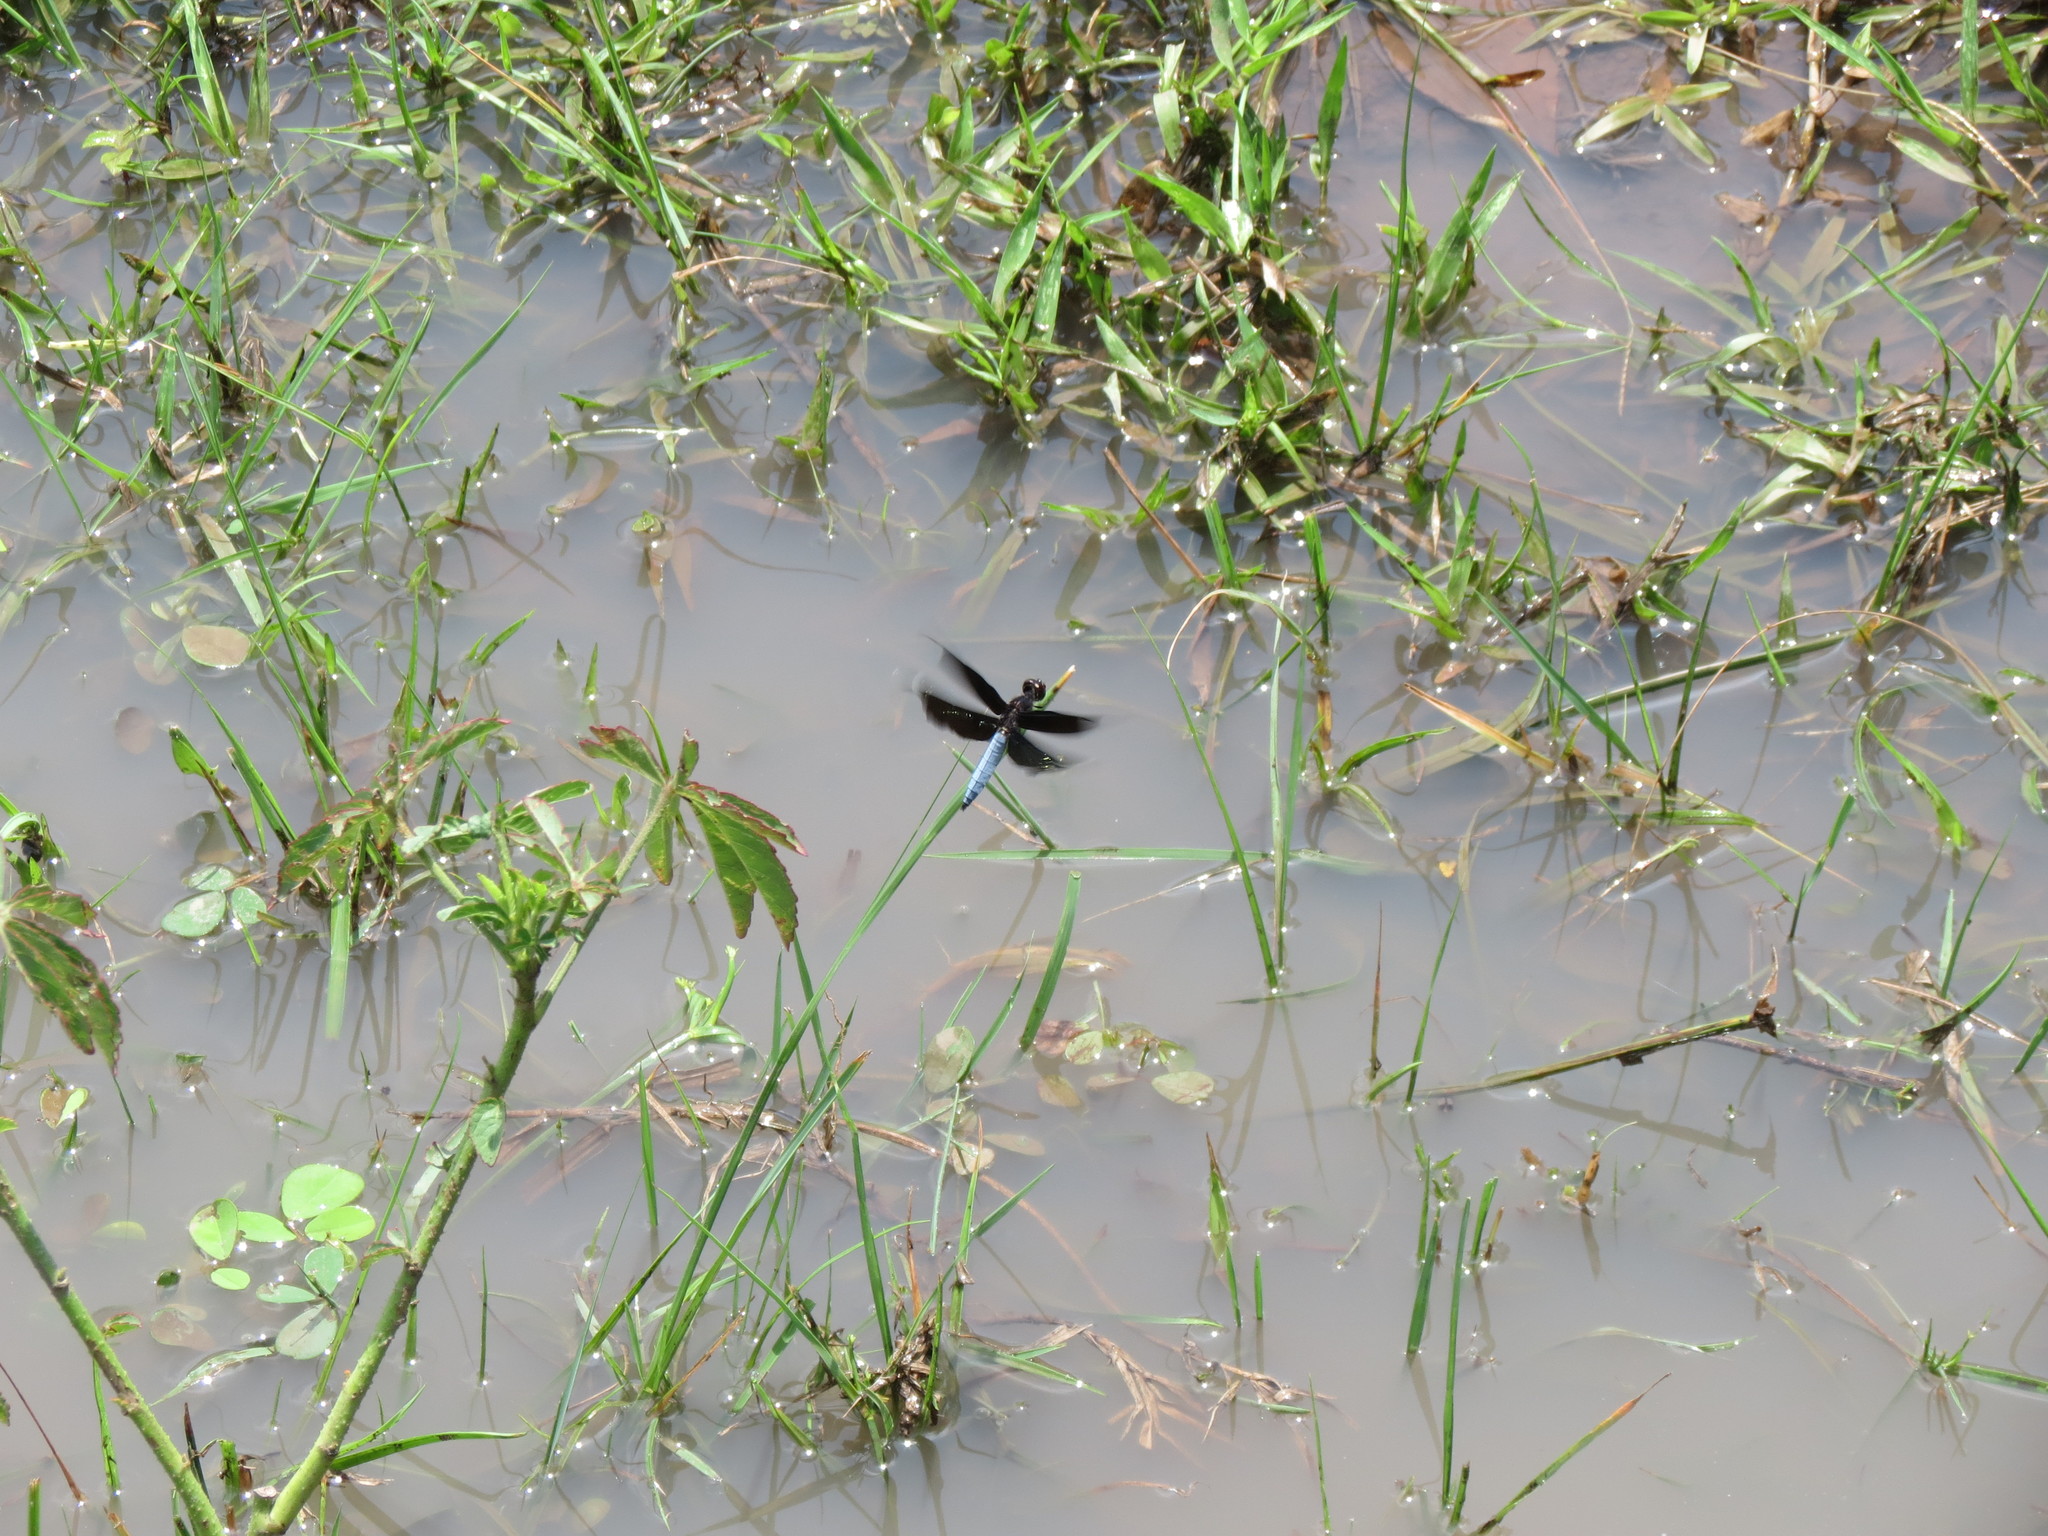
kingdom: Animalia
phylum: Arthropoda
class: Insecta
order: Odonata
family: Libellulidae
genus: Palpopleura
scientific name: Palpopleura lucia
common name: Lucia widow
